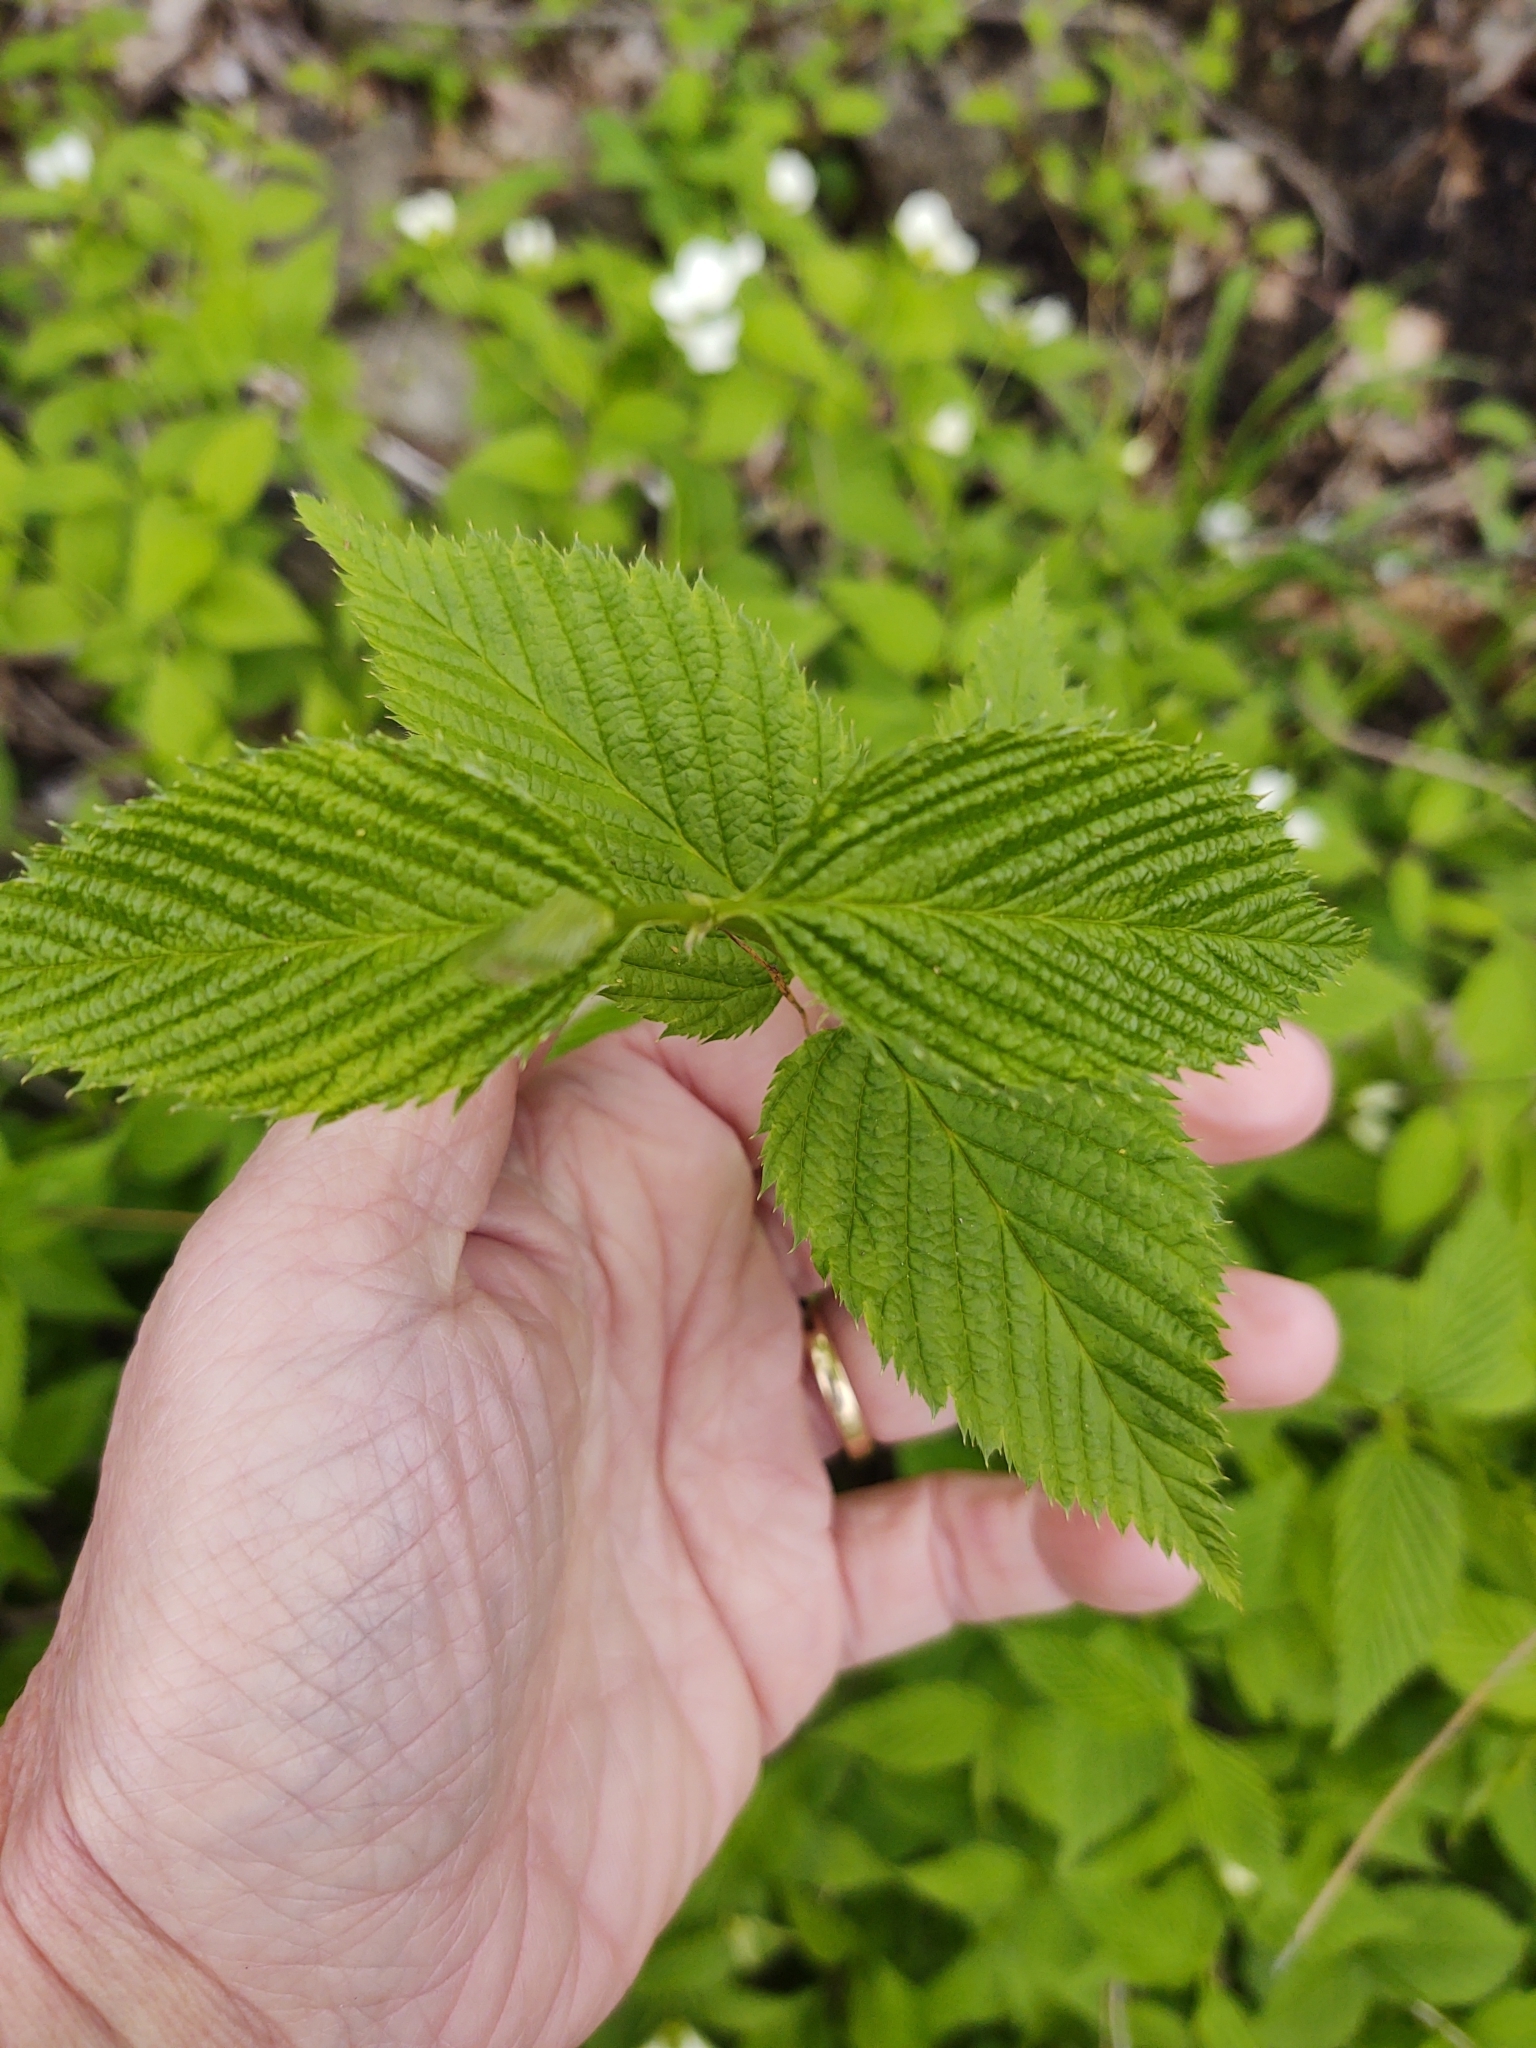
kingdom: Plantae
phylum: Tracheophyta
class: Magnoliopsida
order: Rosales
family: Rosaceae
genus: Rhodotypos
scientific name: Rhodotypos scandens
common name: Jetbead
